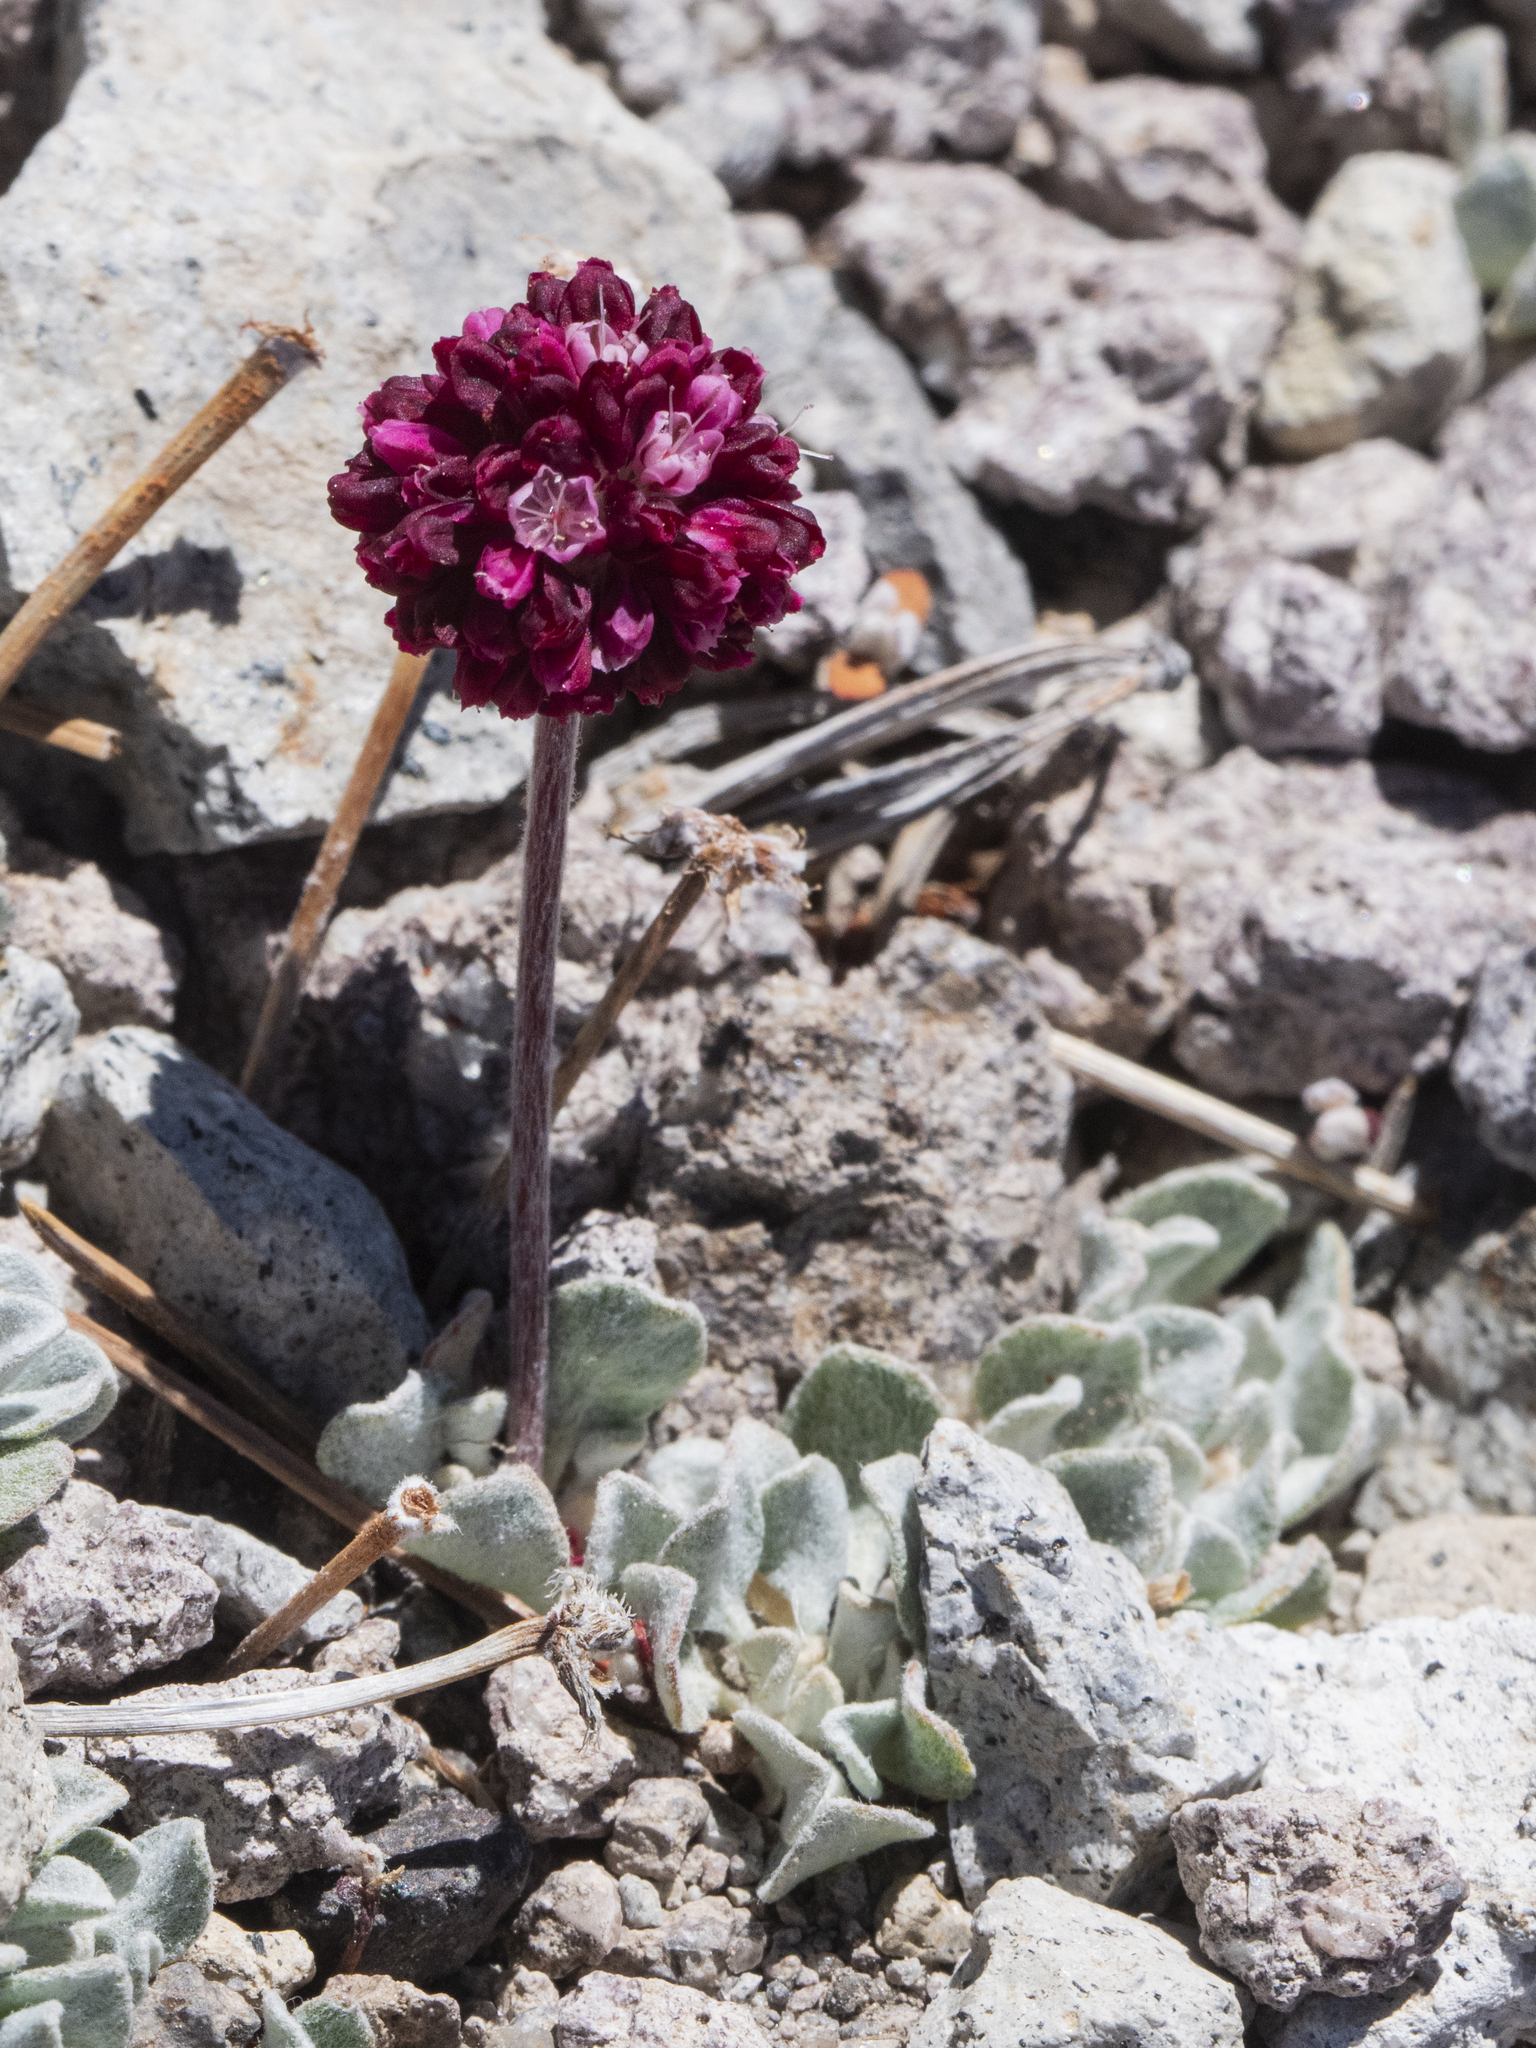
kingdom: Plantae
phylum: Tracheophyta
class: Magnoliopsida
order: Caryophyllales
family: Polygonaceae
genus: Eriogonum
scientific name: Eriogonum ovalifolium
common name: Cushion buckwheat
